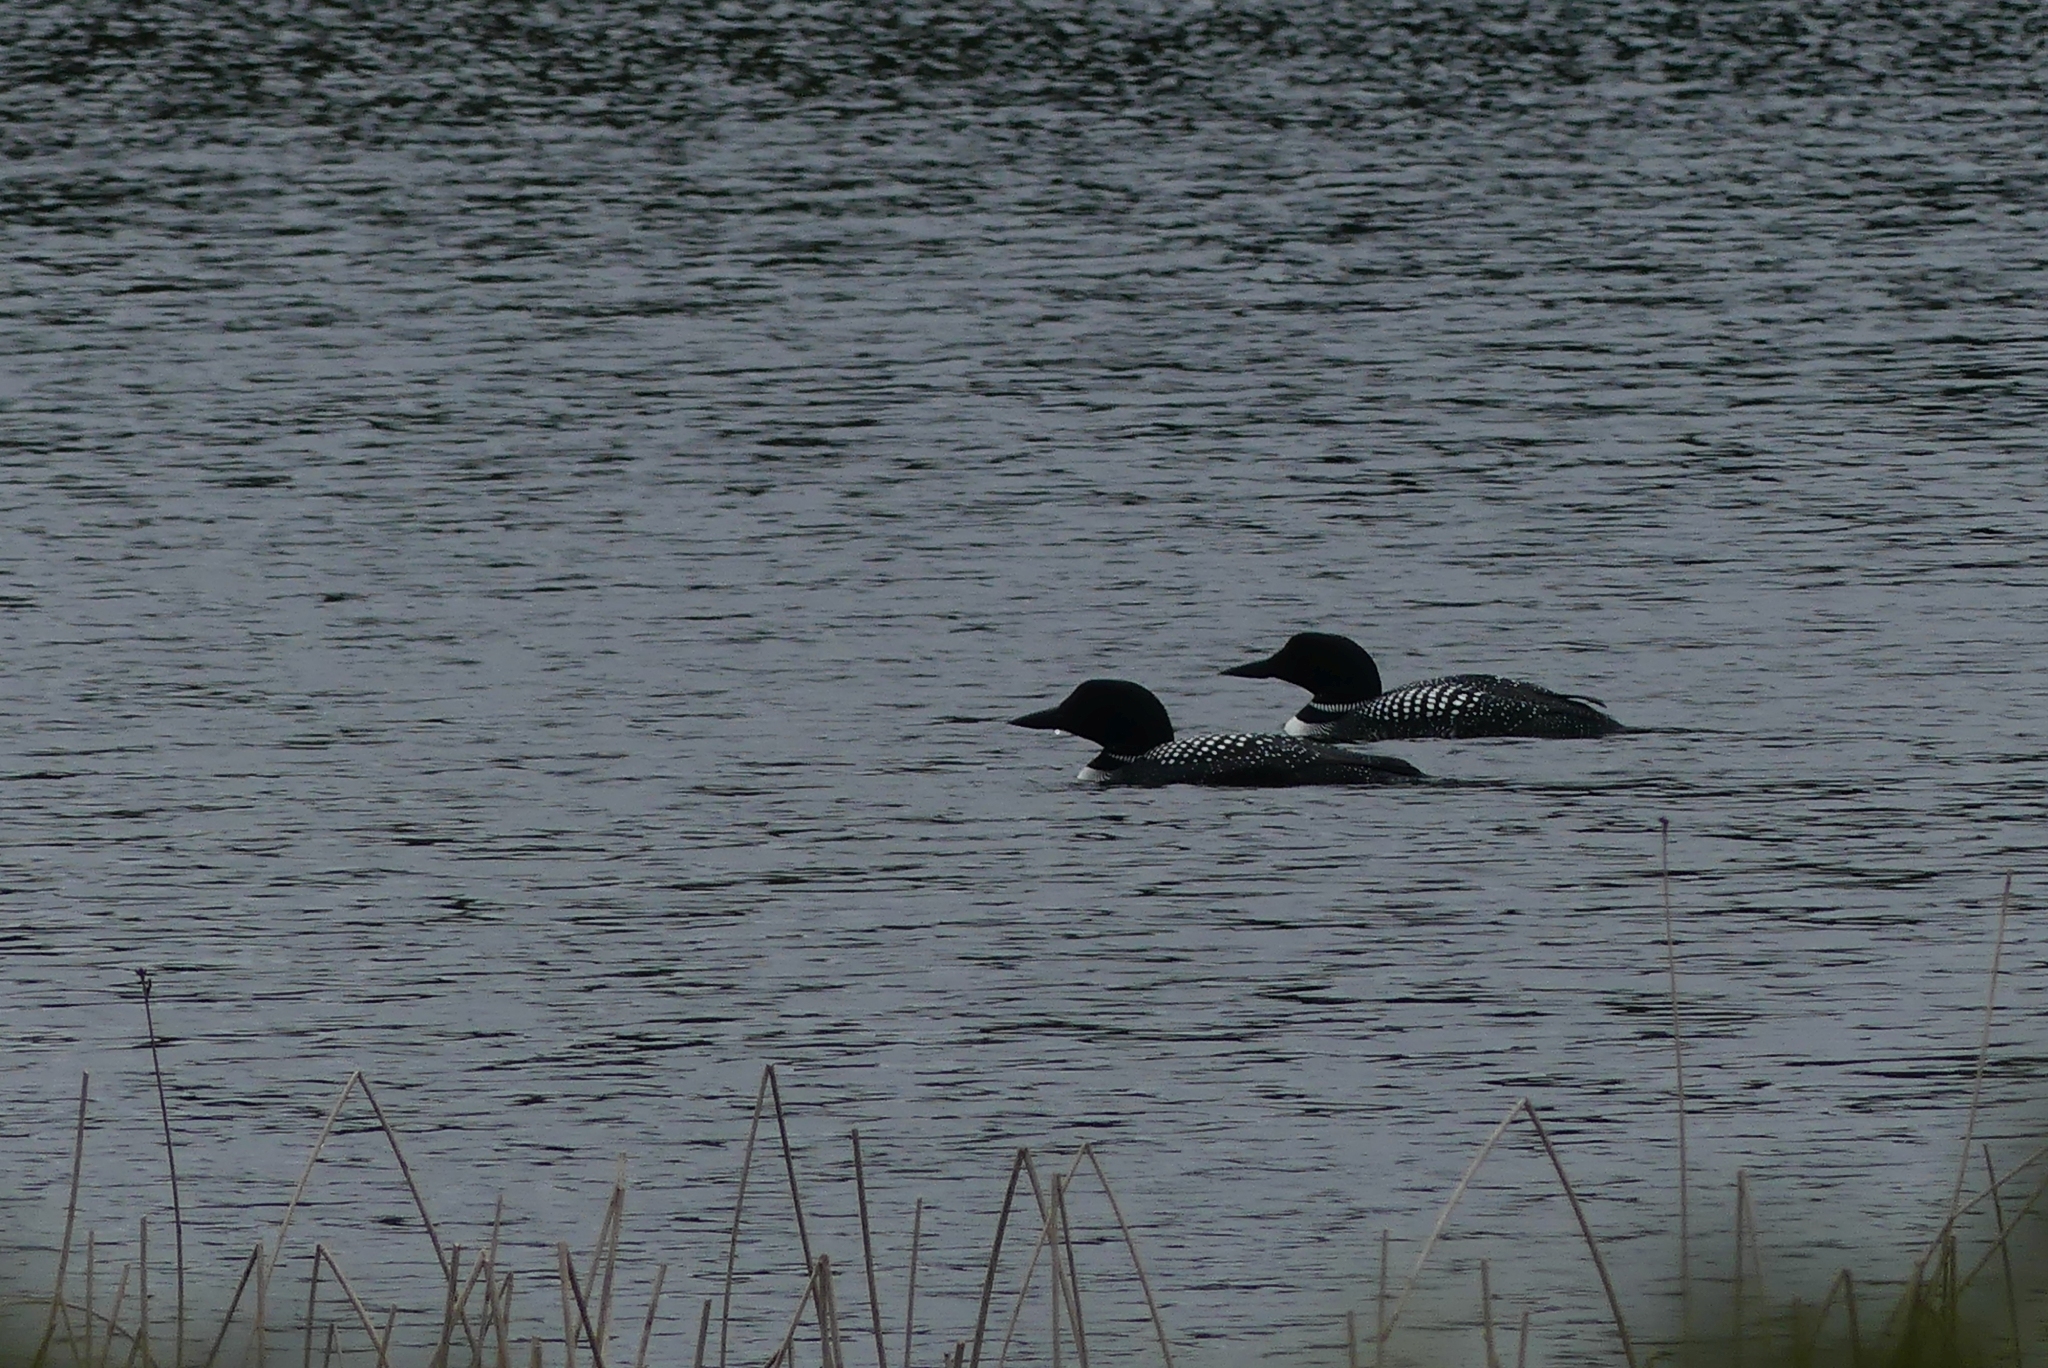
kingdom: Animalia
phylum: Chordata
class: Aves
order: Gaviiformes
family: Gaviidae
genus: Gavia
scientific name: Gavia immer
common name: Common loon
